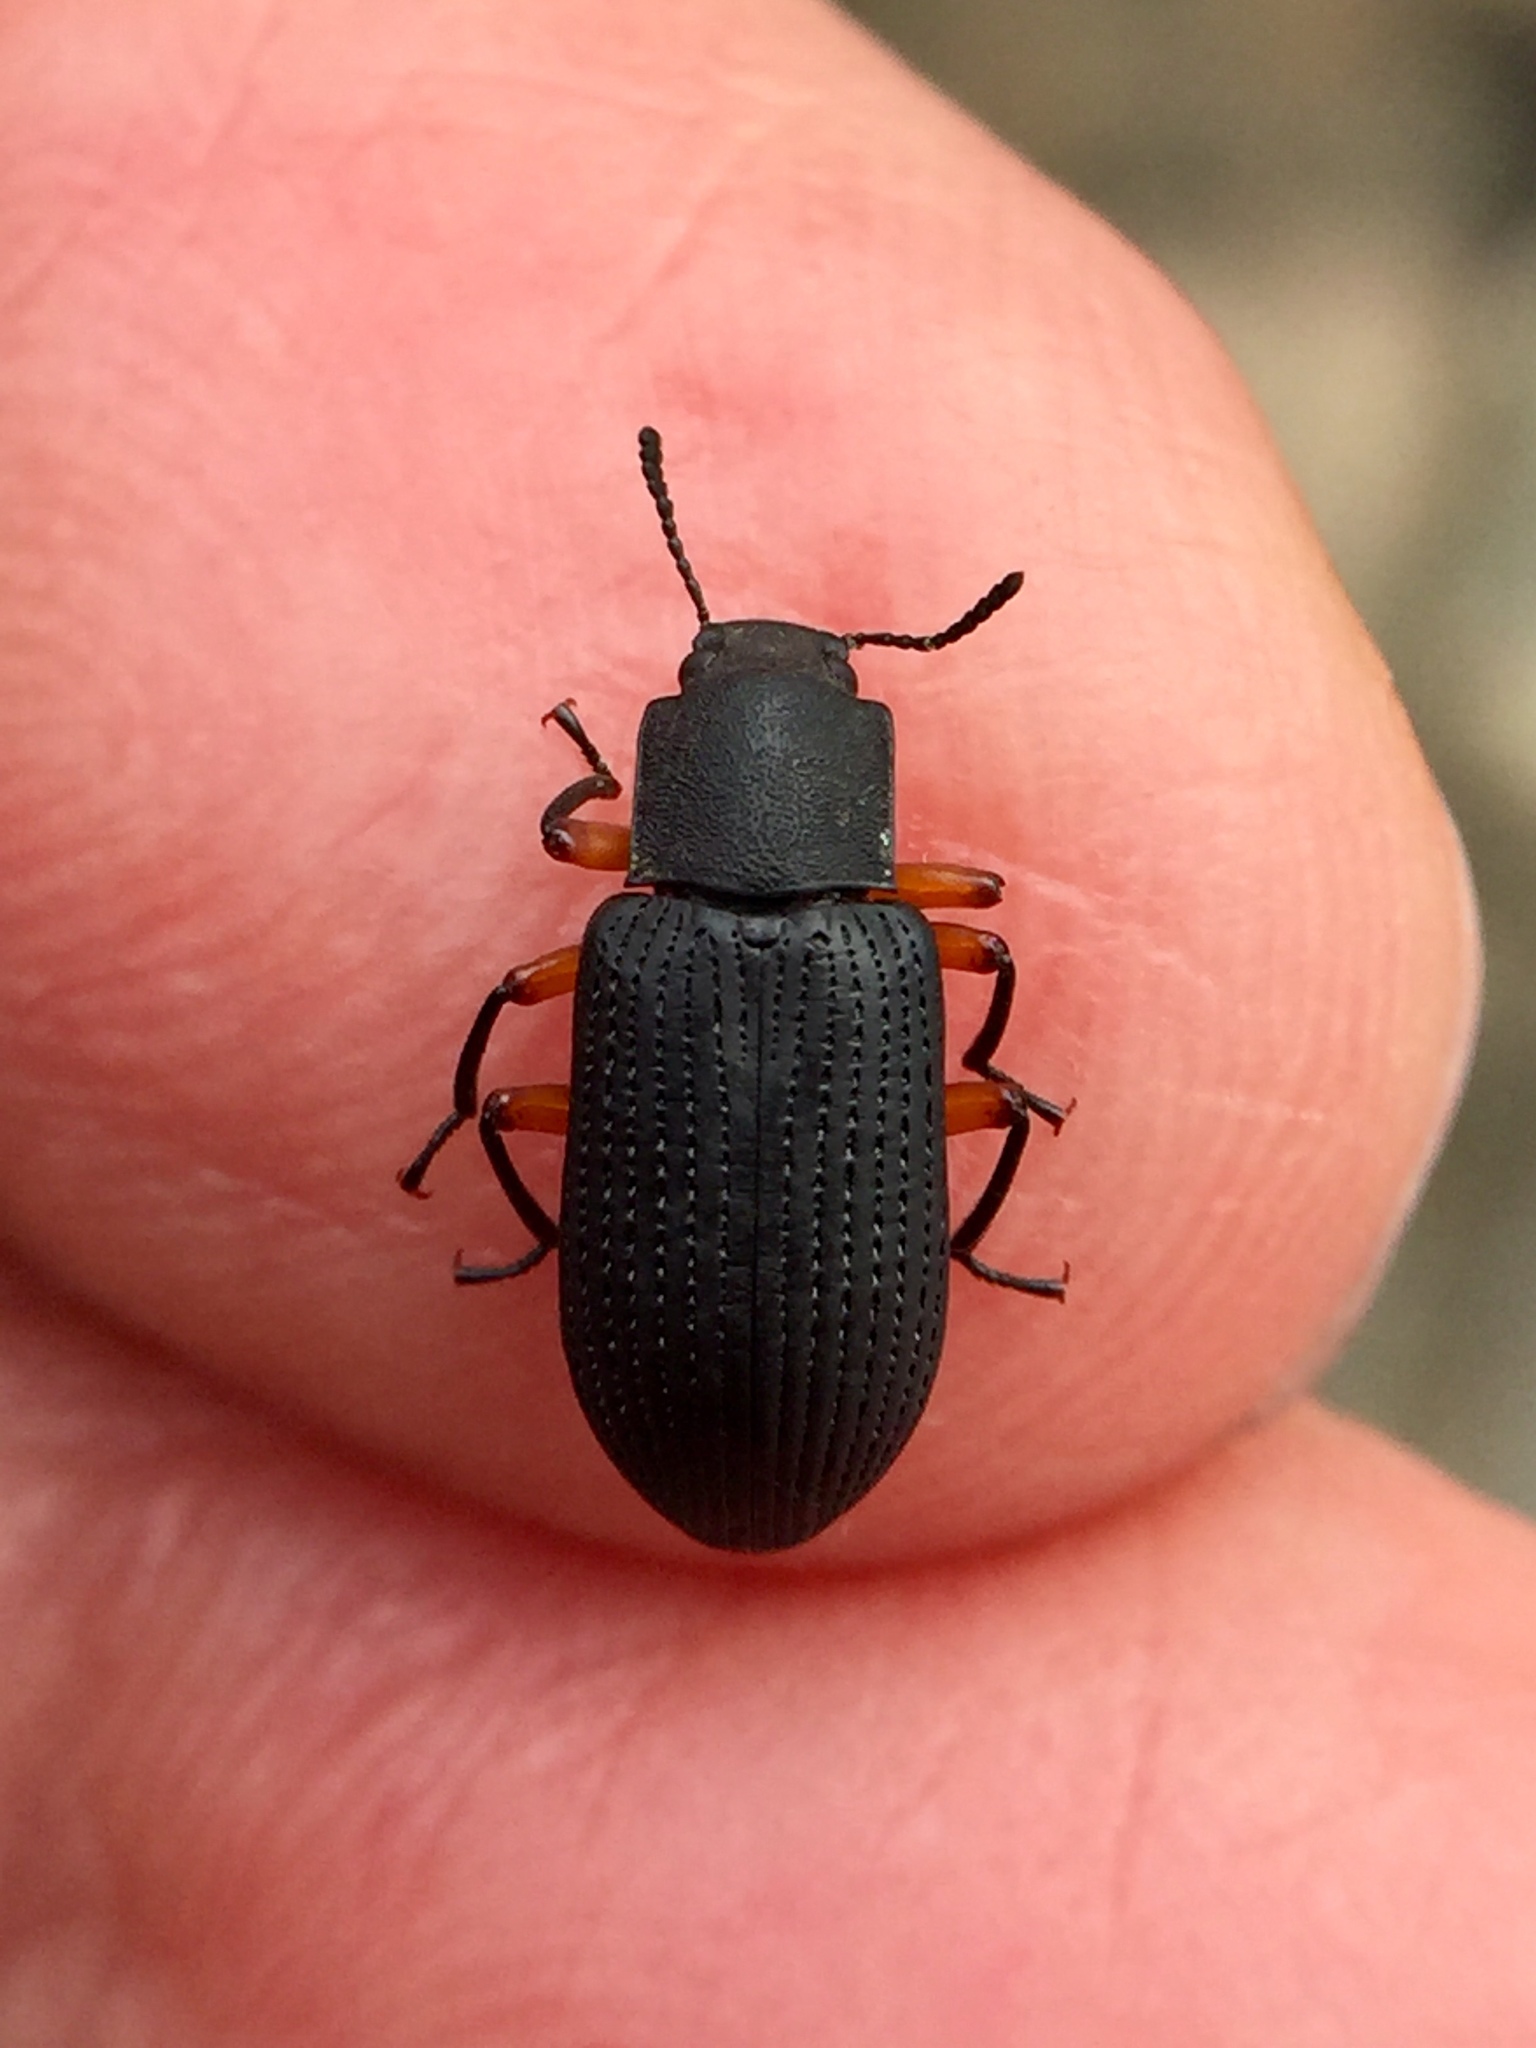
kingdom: Animalia
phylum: Arthropoda
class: Insecta
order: Coleoptera
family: Tenebrionidae
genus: Haplandrus
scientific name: Haplandrus fulvipes
